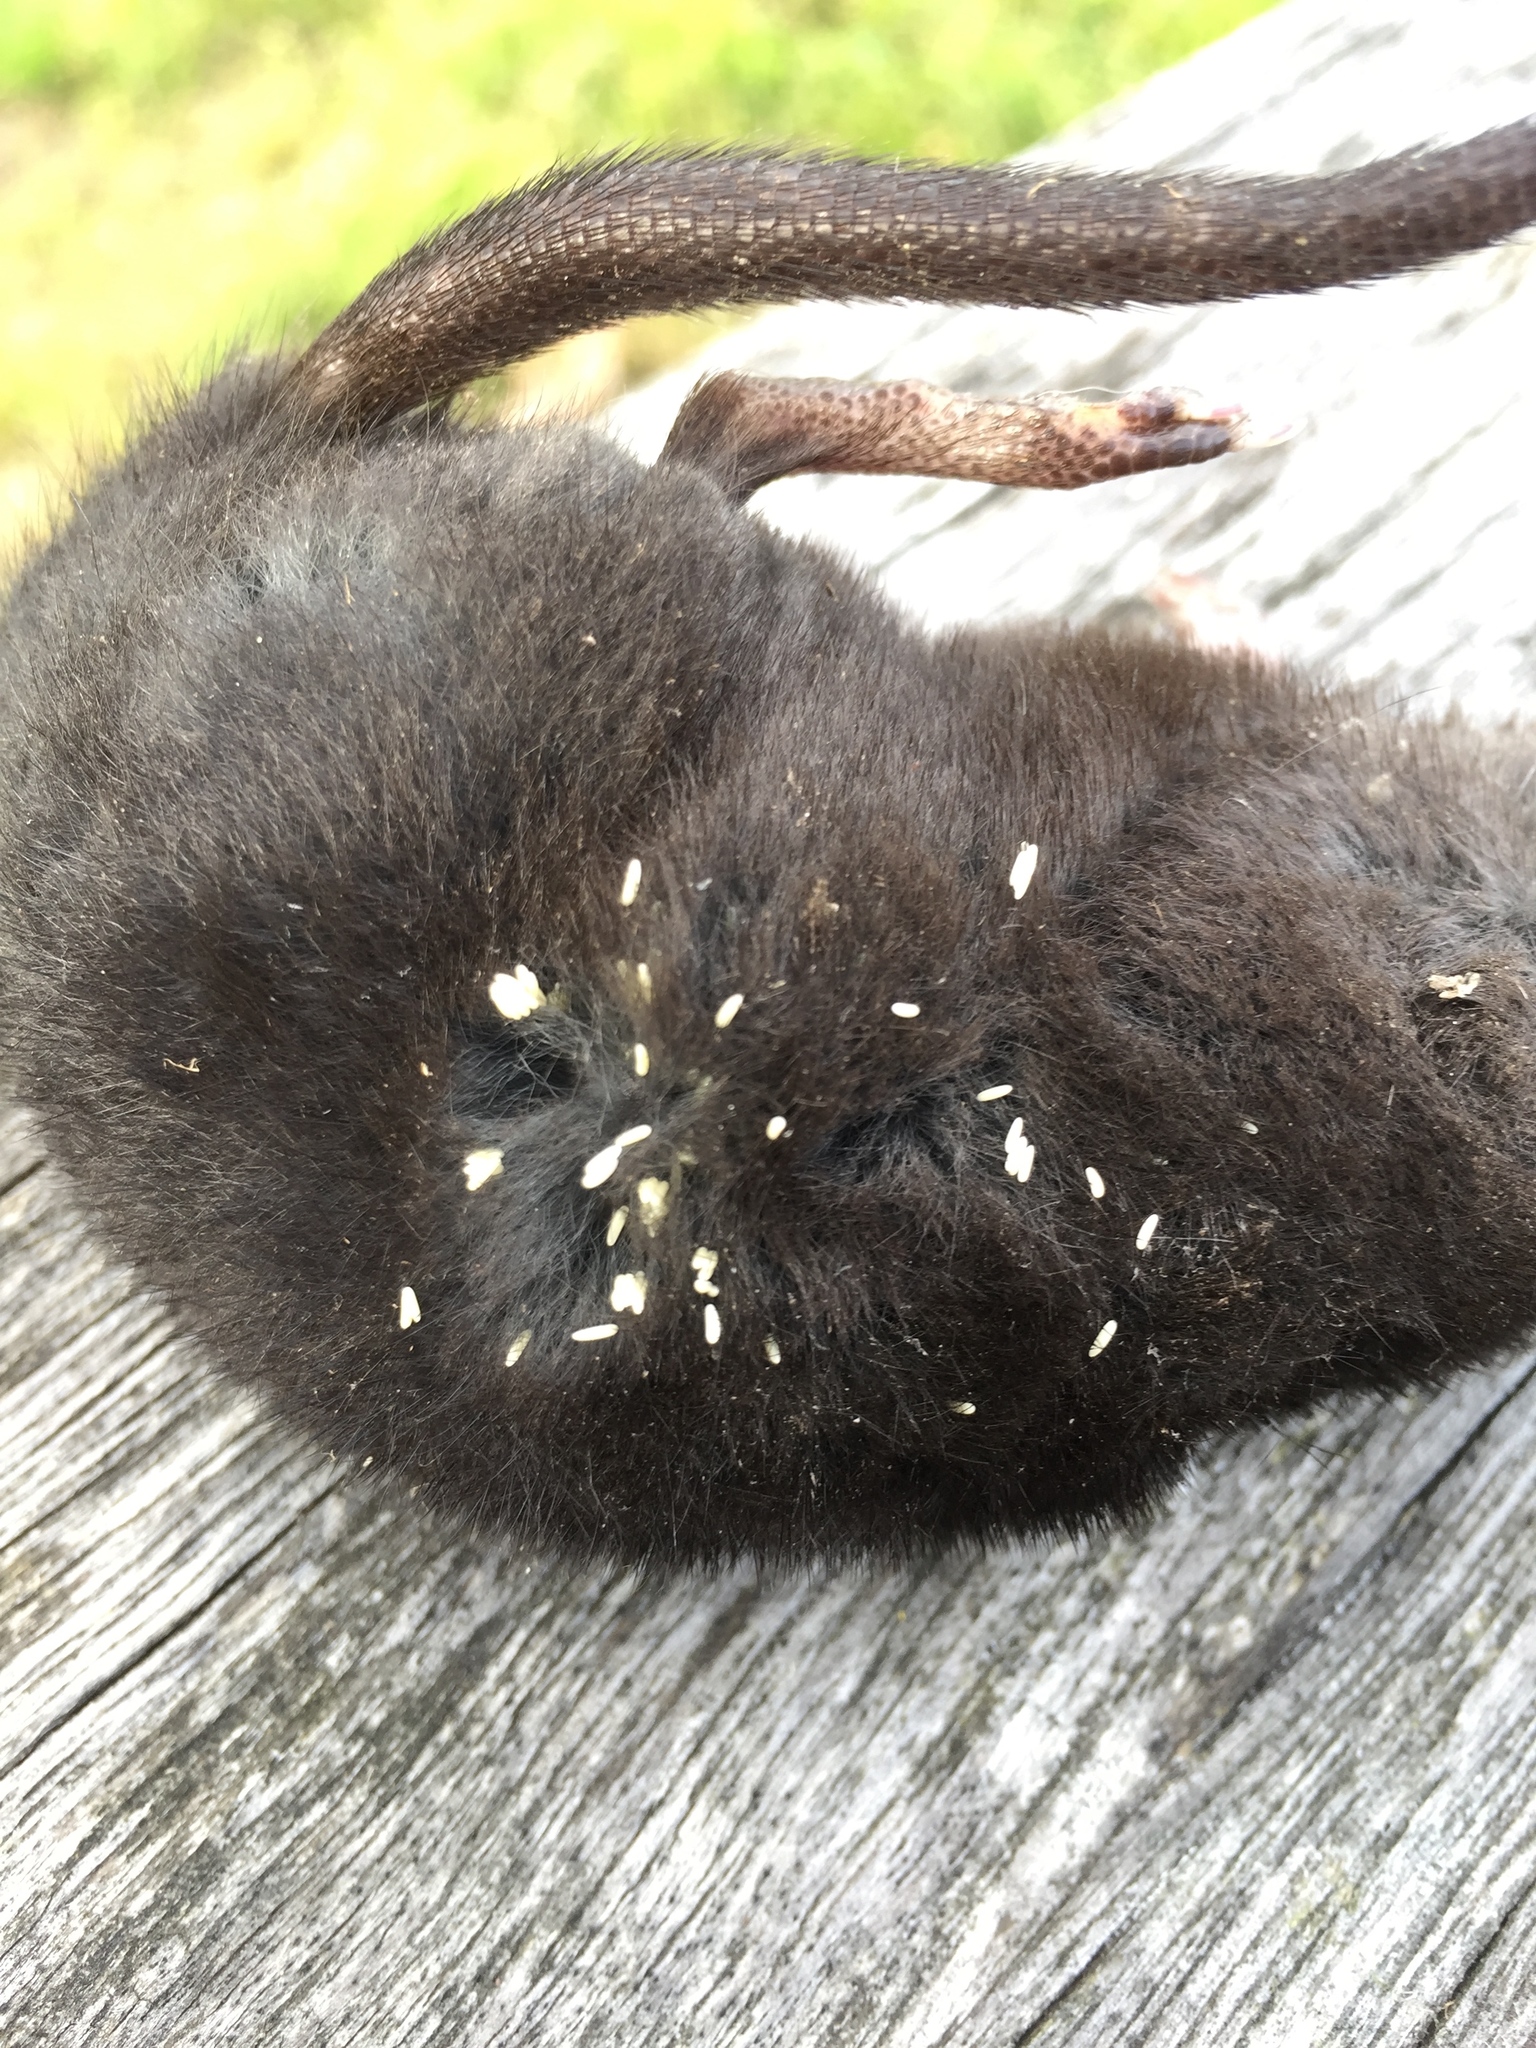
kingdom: Animalia
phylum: Chordata
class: Mammalia
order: Soricomorpha
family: Talpidae
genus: Condylura
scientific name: Condylura cristata
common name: Star-nosed mole
